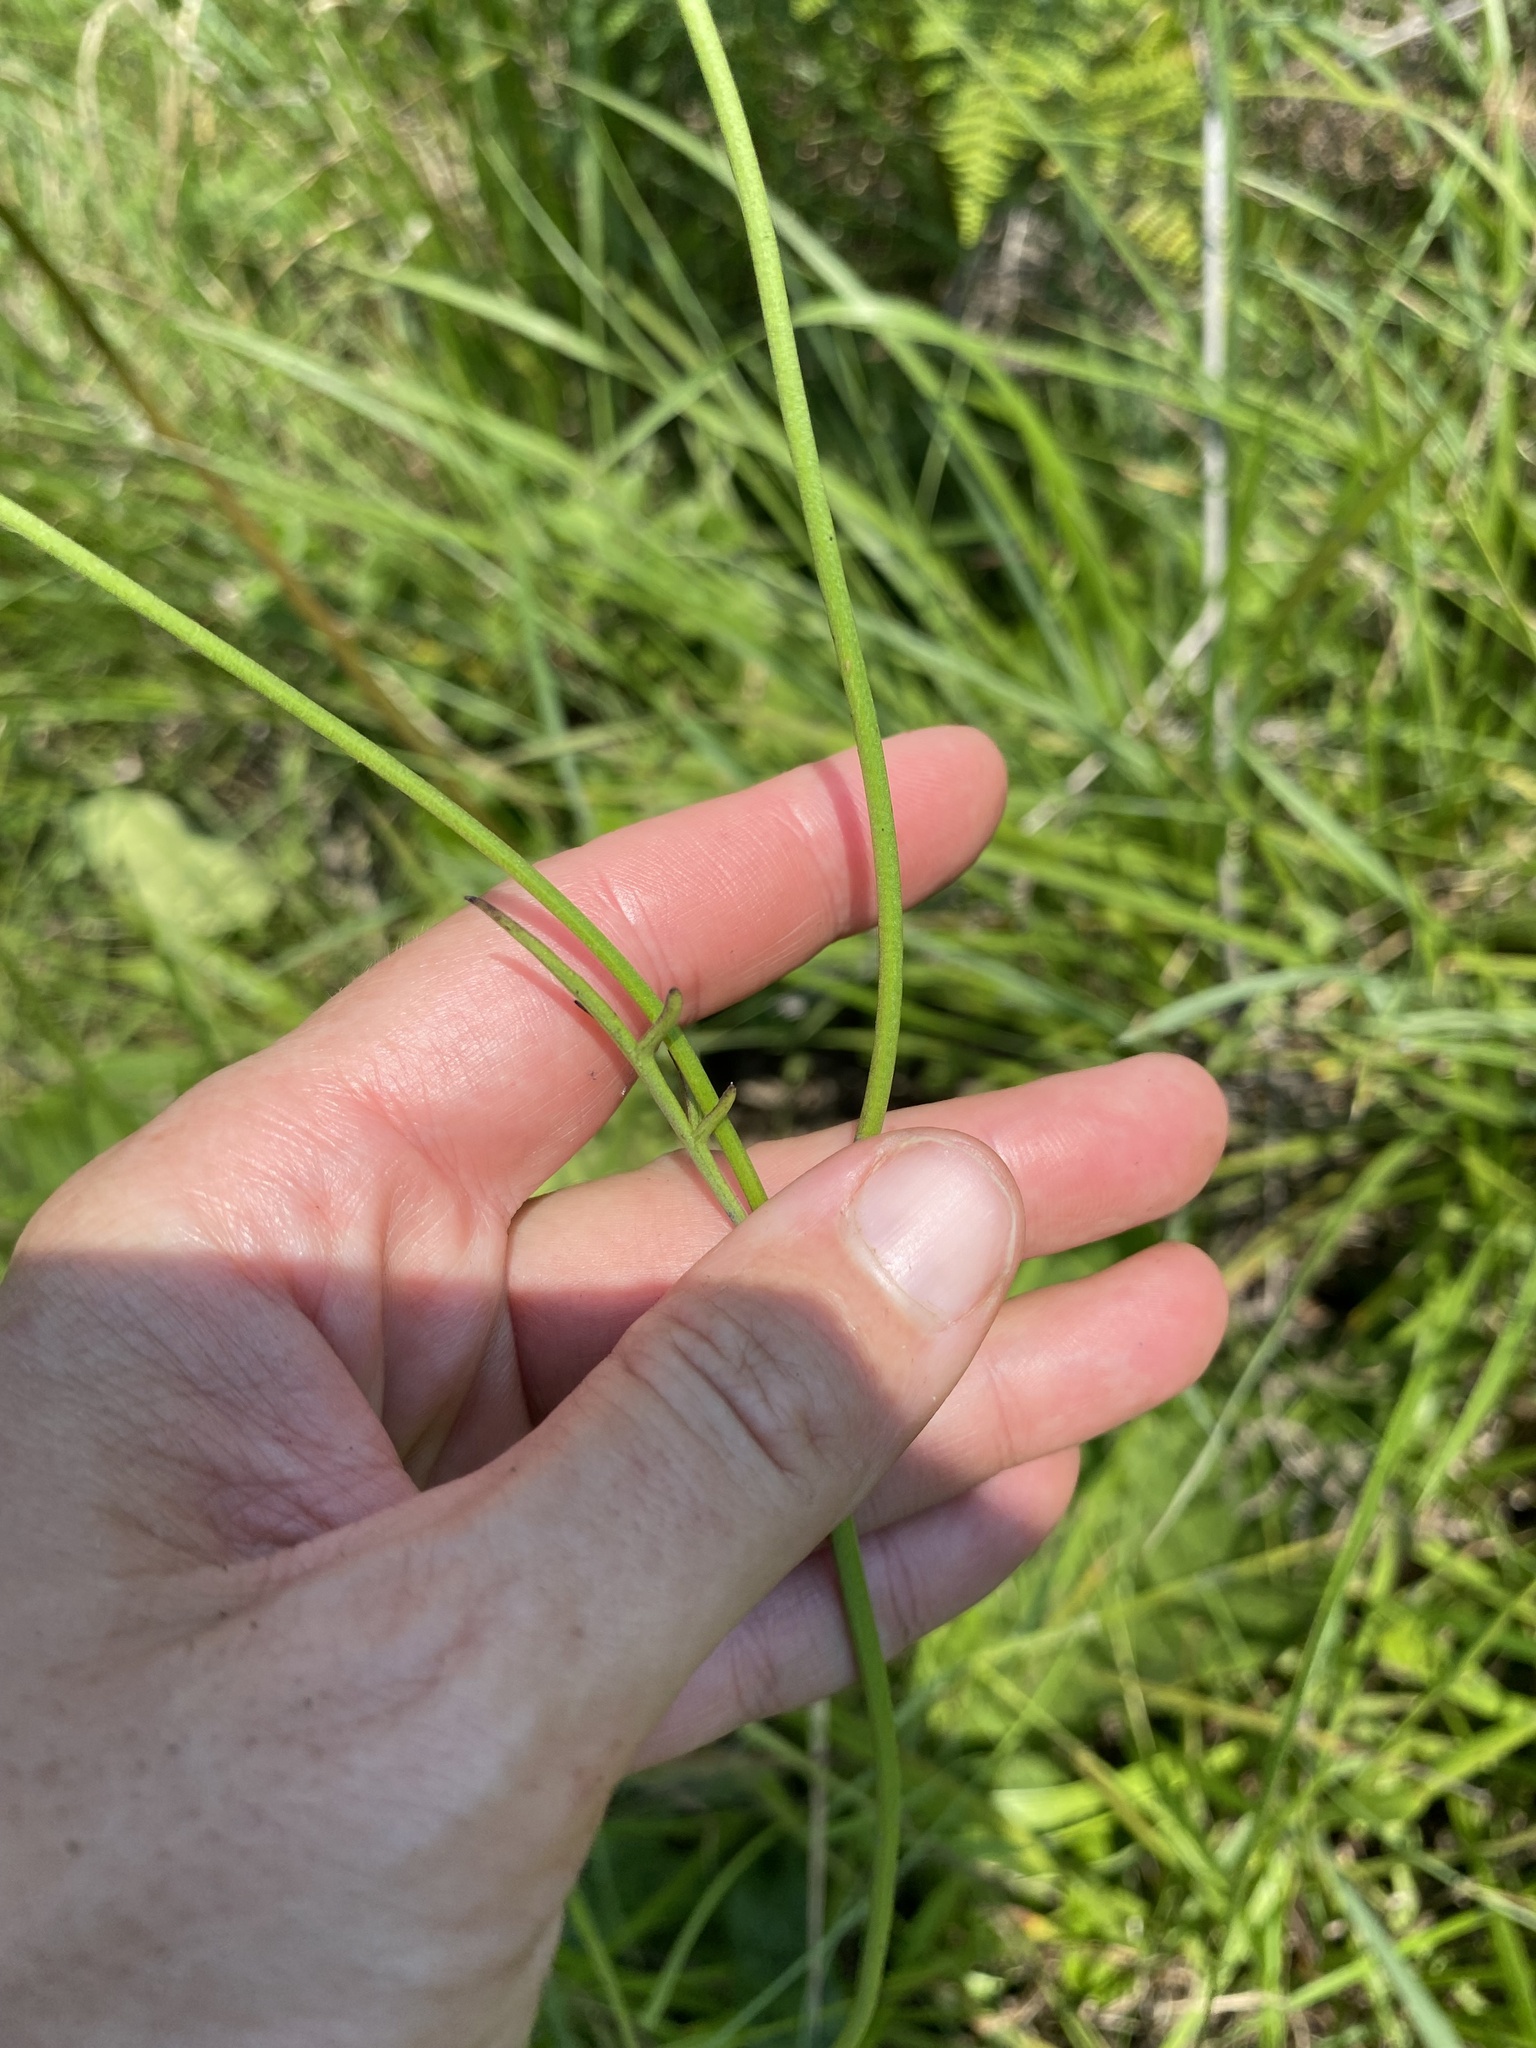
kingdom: Plantae
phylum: Tracheophyta
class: Magnoliopsida
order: Dipsacales
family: Caprifoliaceae
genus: Scabiosa
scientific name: Scabiosa columbaria
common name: Small scabious
